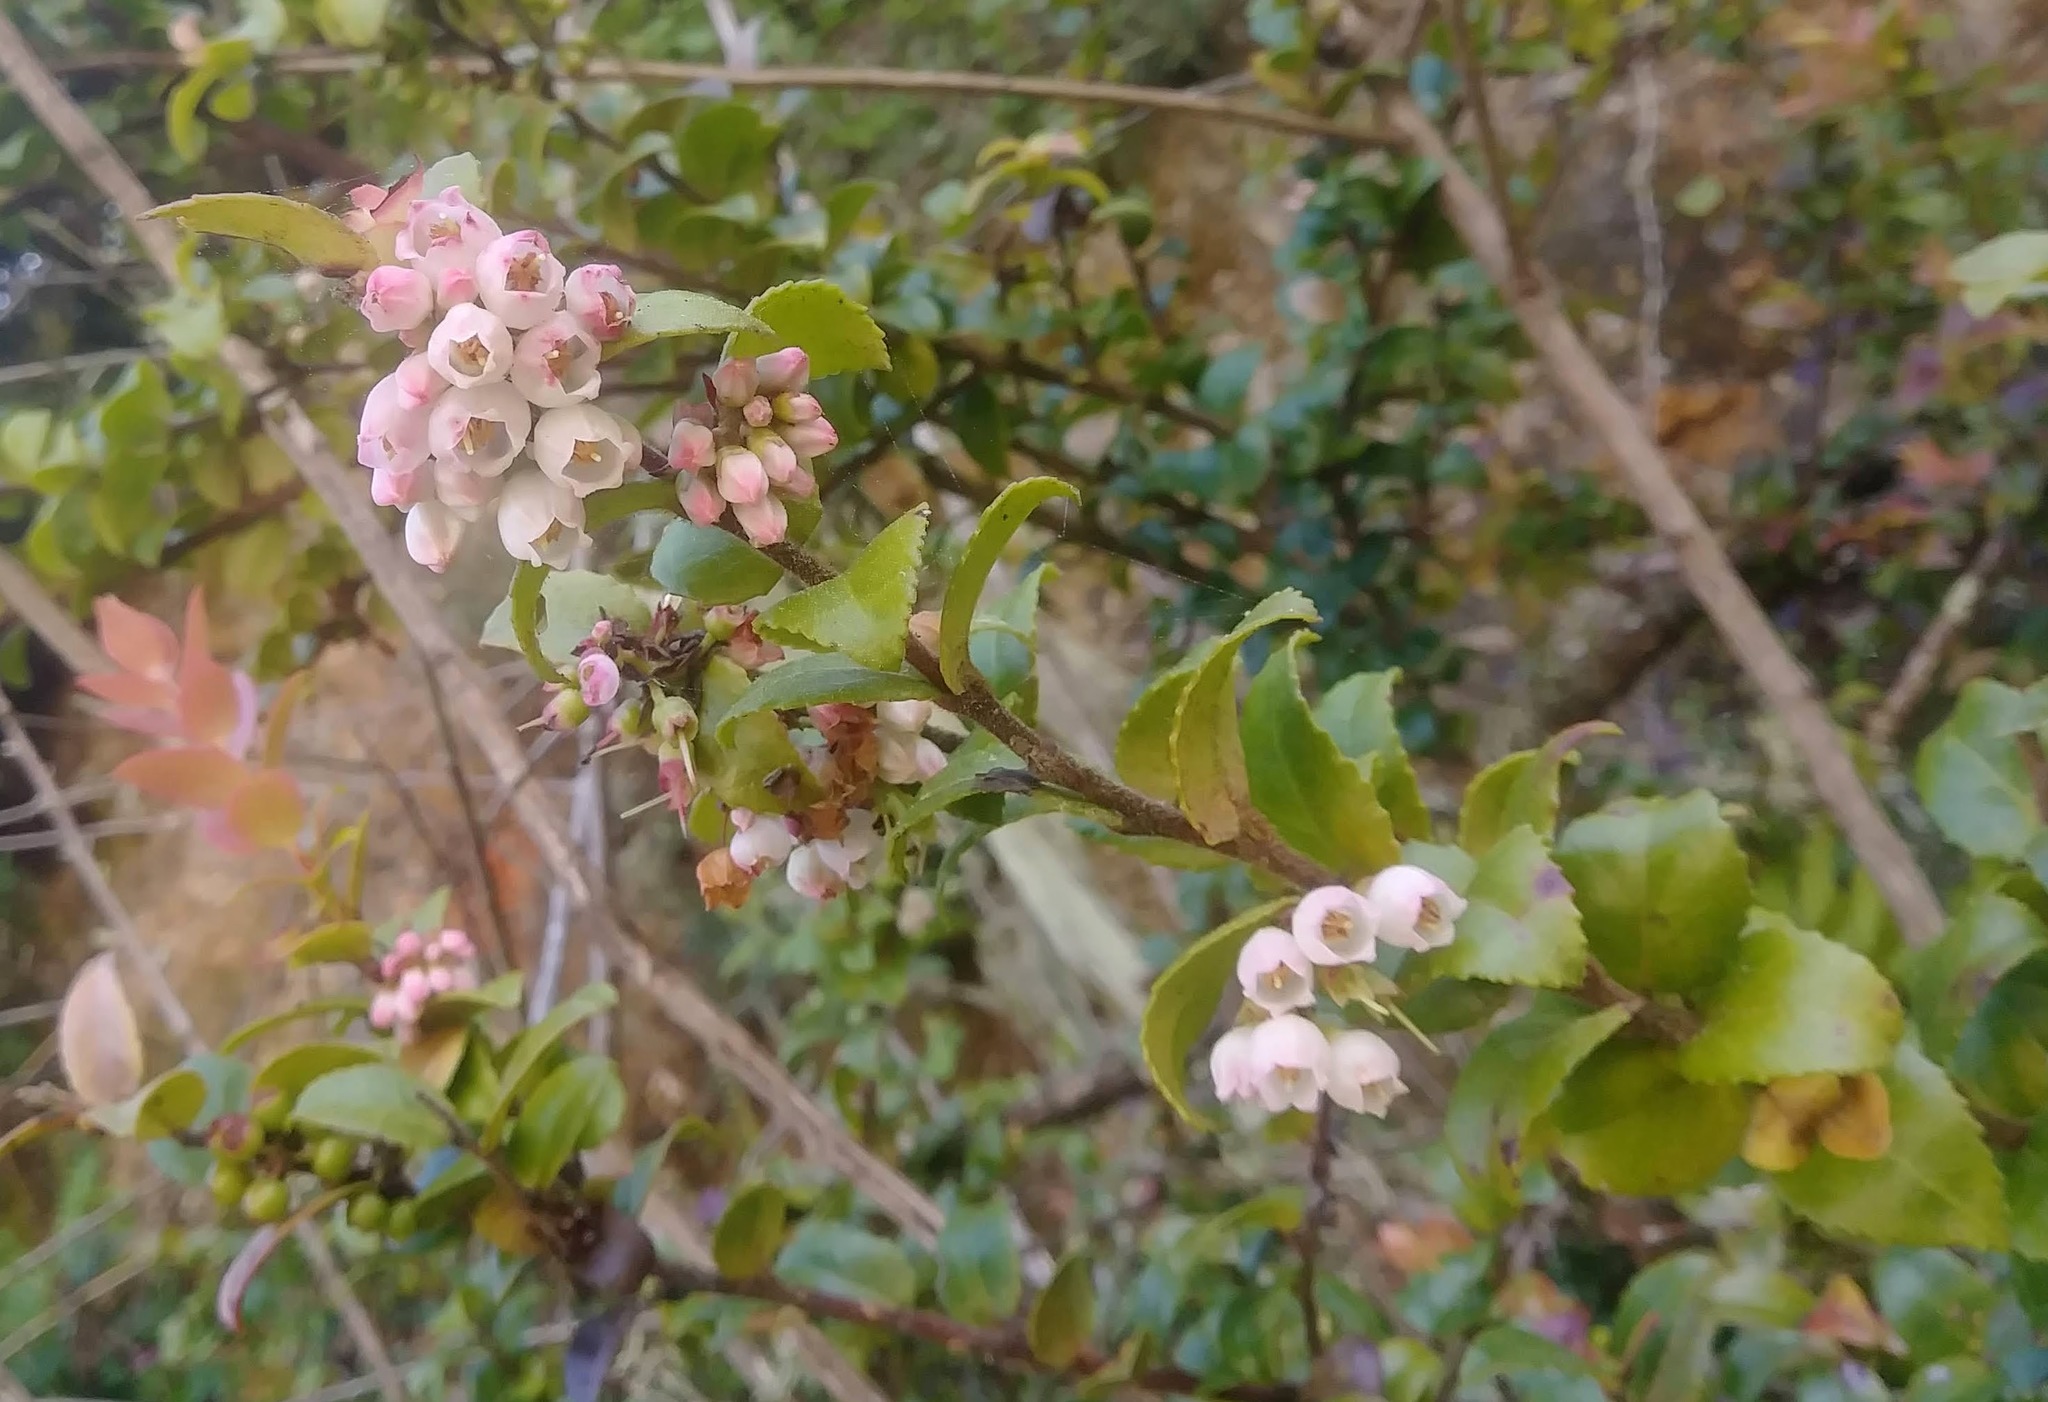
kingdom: Plantae
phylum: Tracheophyta
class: Magnoliopsida
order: Ericales
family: Ericaceae
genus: Vaccinium
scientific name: Vaccinium ovatum
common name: California-huckleberry
